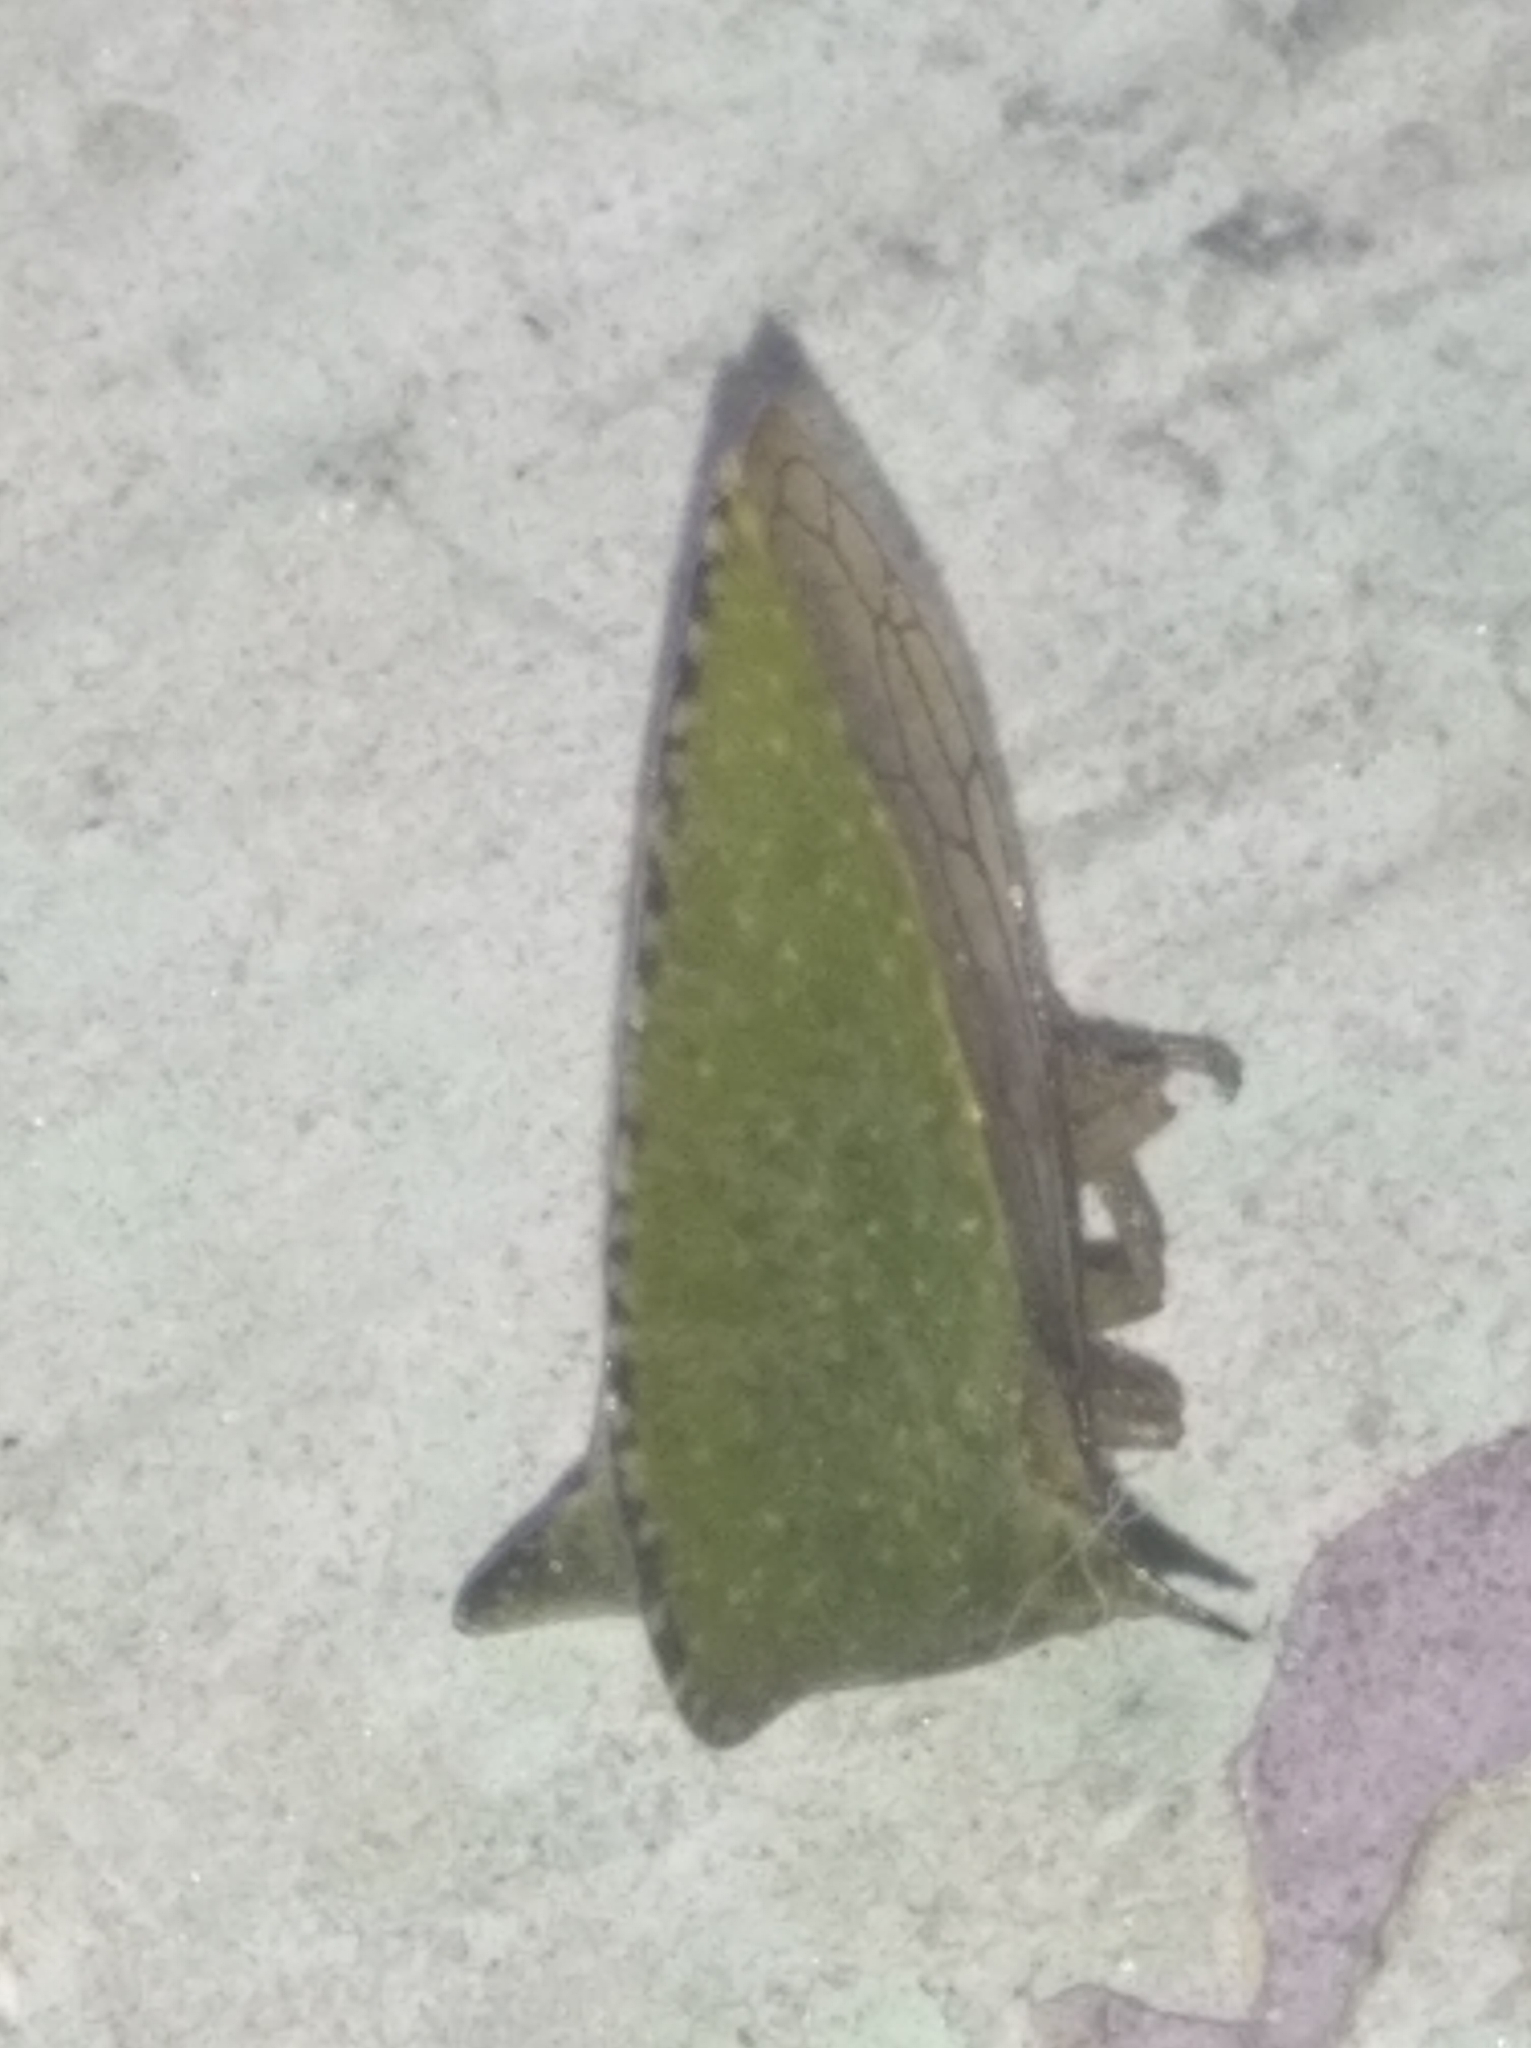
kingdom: Animalia
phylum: Arthropoda
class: Insecta
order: Hemiptera
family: Membracidae
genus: Antianthe
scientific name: Antianthe expansa
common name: Keeled tree hopper
